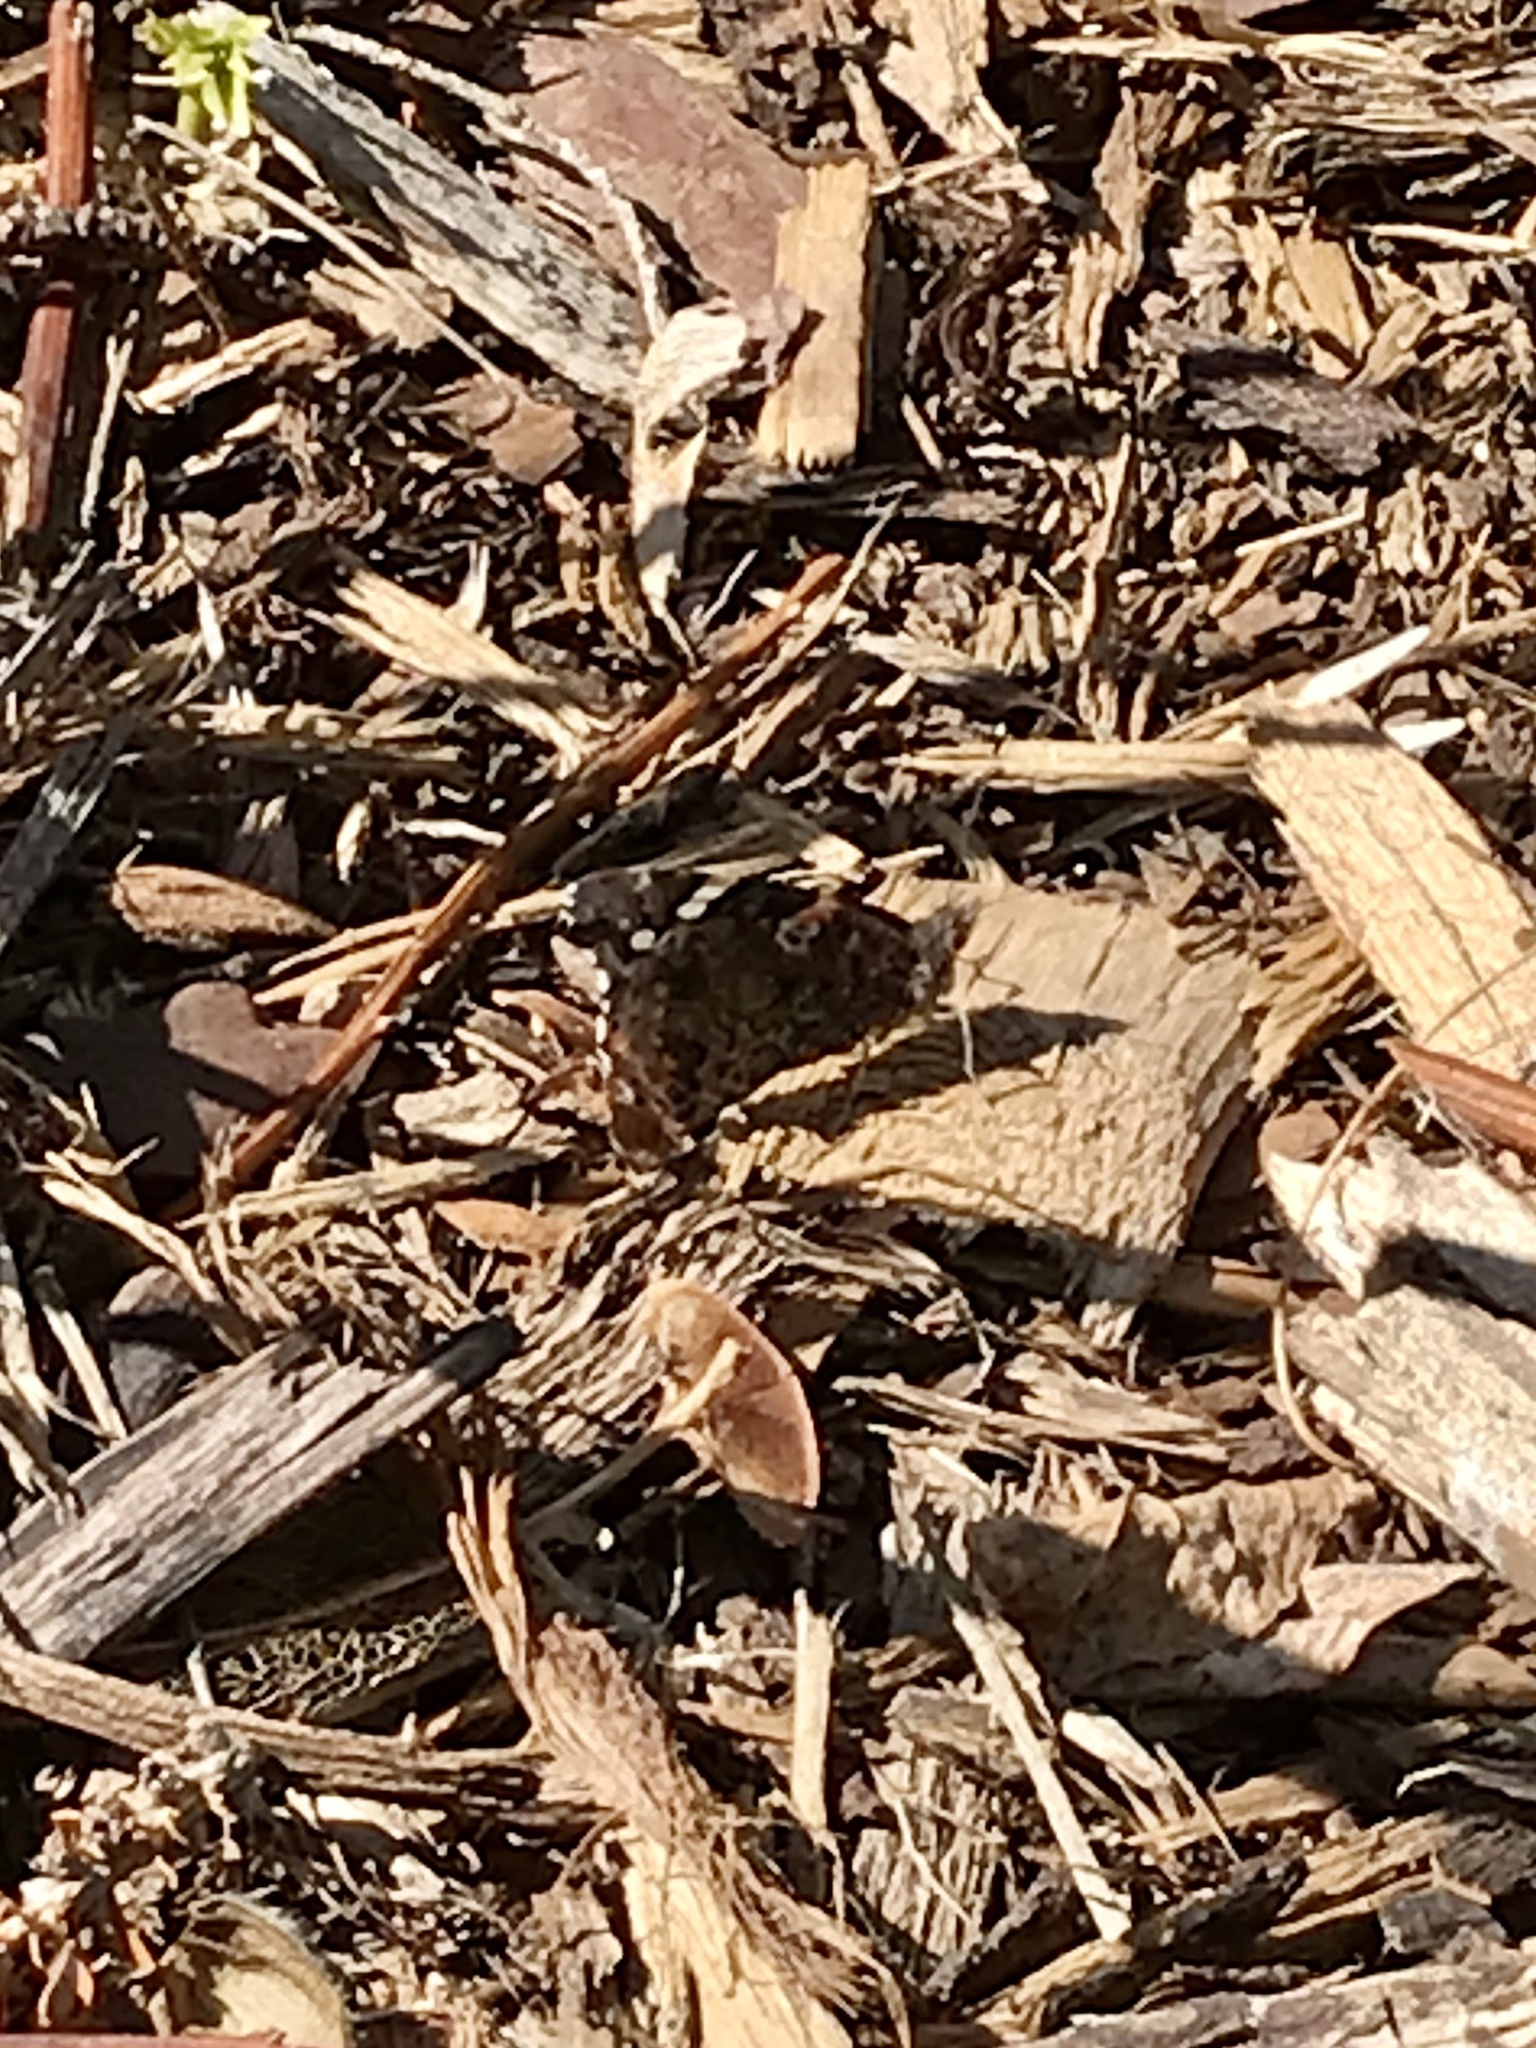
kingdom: Animalia
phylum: Arthropoda
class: Insecta
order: Lepidoptera
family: Nymphalidae
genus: Vanessa
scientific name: Vanessa atalanta
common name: Red admiral
